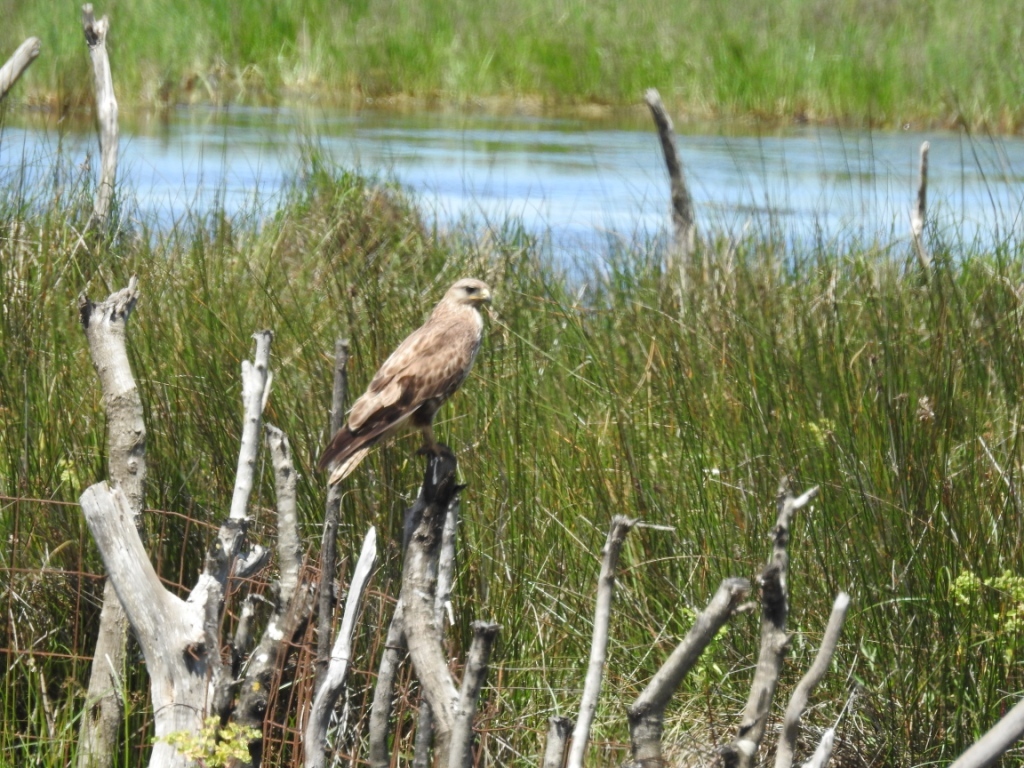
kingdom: Animalia
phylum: Chordata
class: Aves
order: Accipitriformes
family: Accipitridae
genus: Buteo
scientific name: Buteo rufinus
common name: Long-legged buzzard
